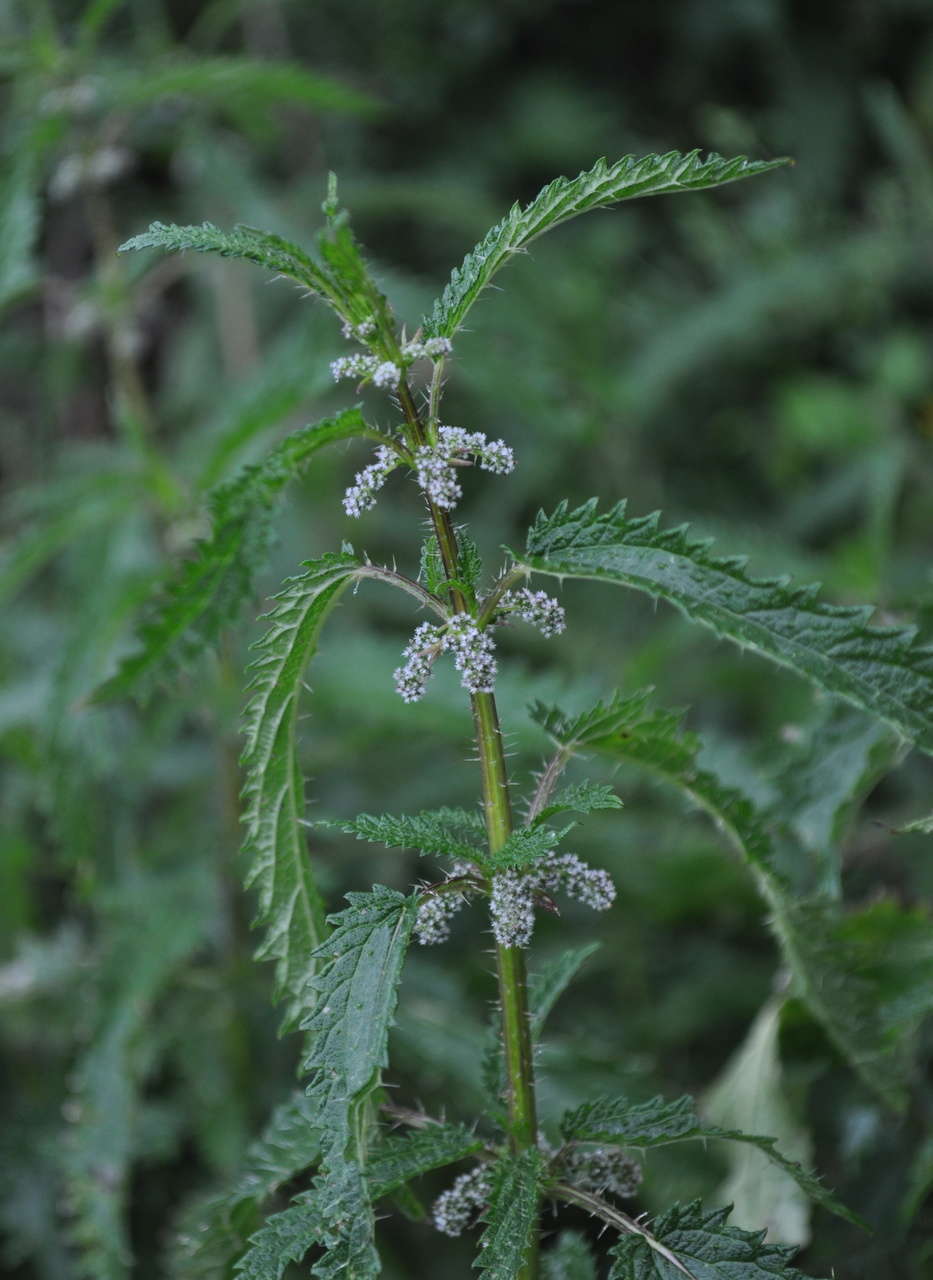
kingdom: Plantae
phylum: Tracheophyta
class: Magnoliopsida
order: Rosales
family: Urticaceae
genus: Urtica
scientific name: Urtica incisa
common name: Scrub nettle
